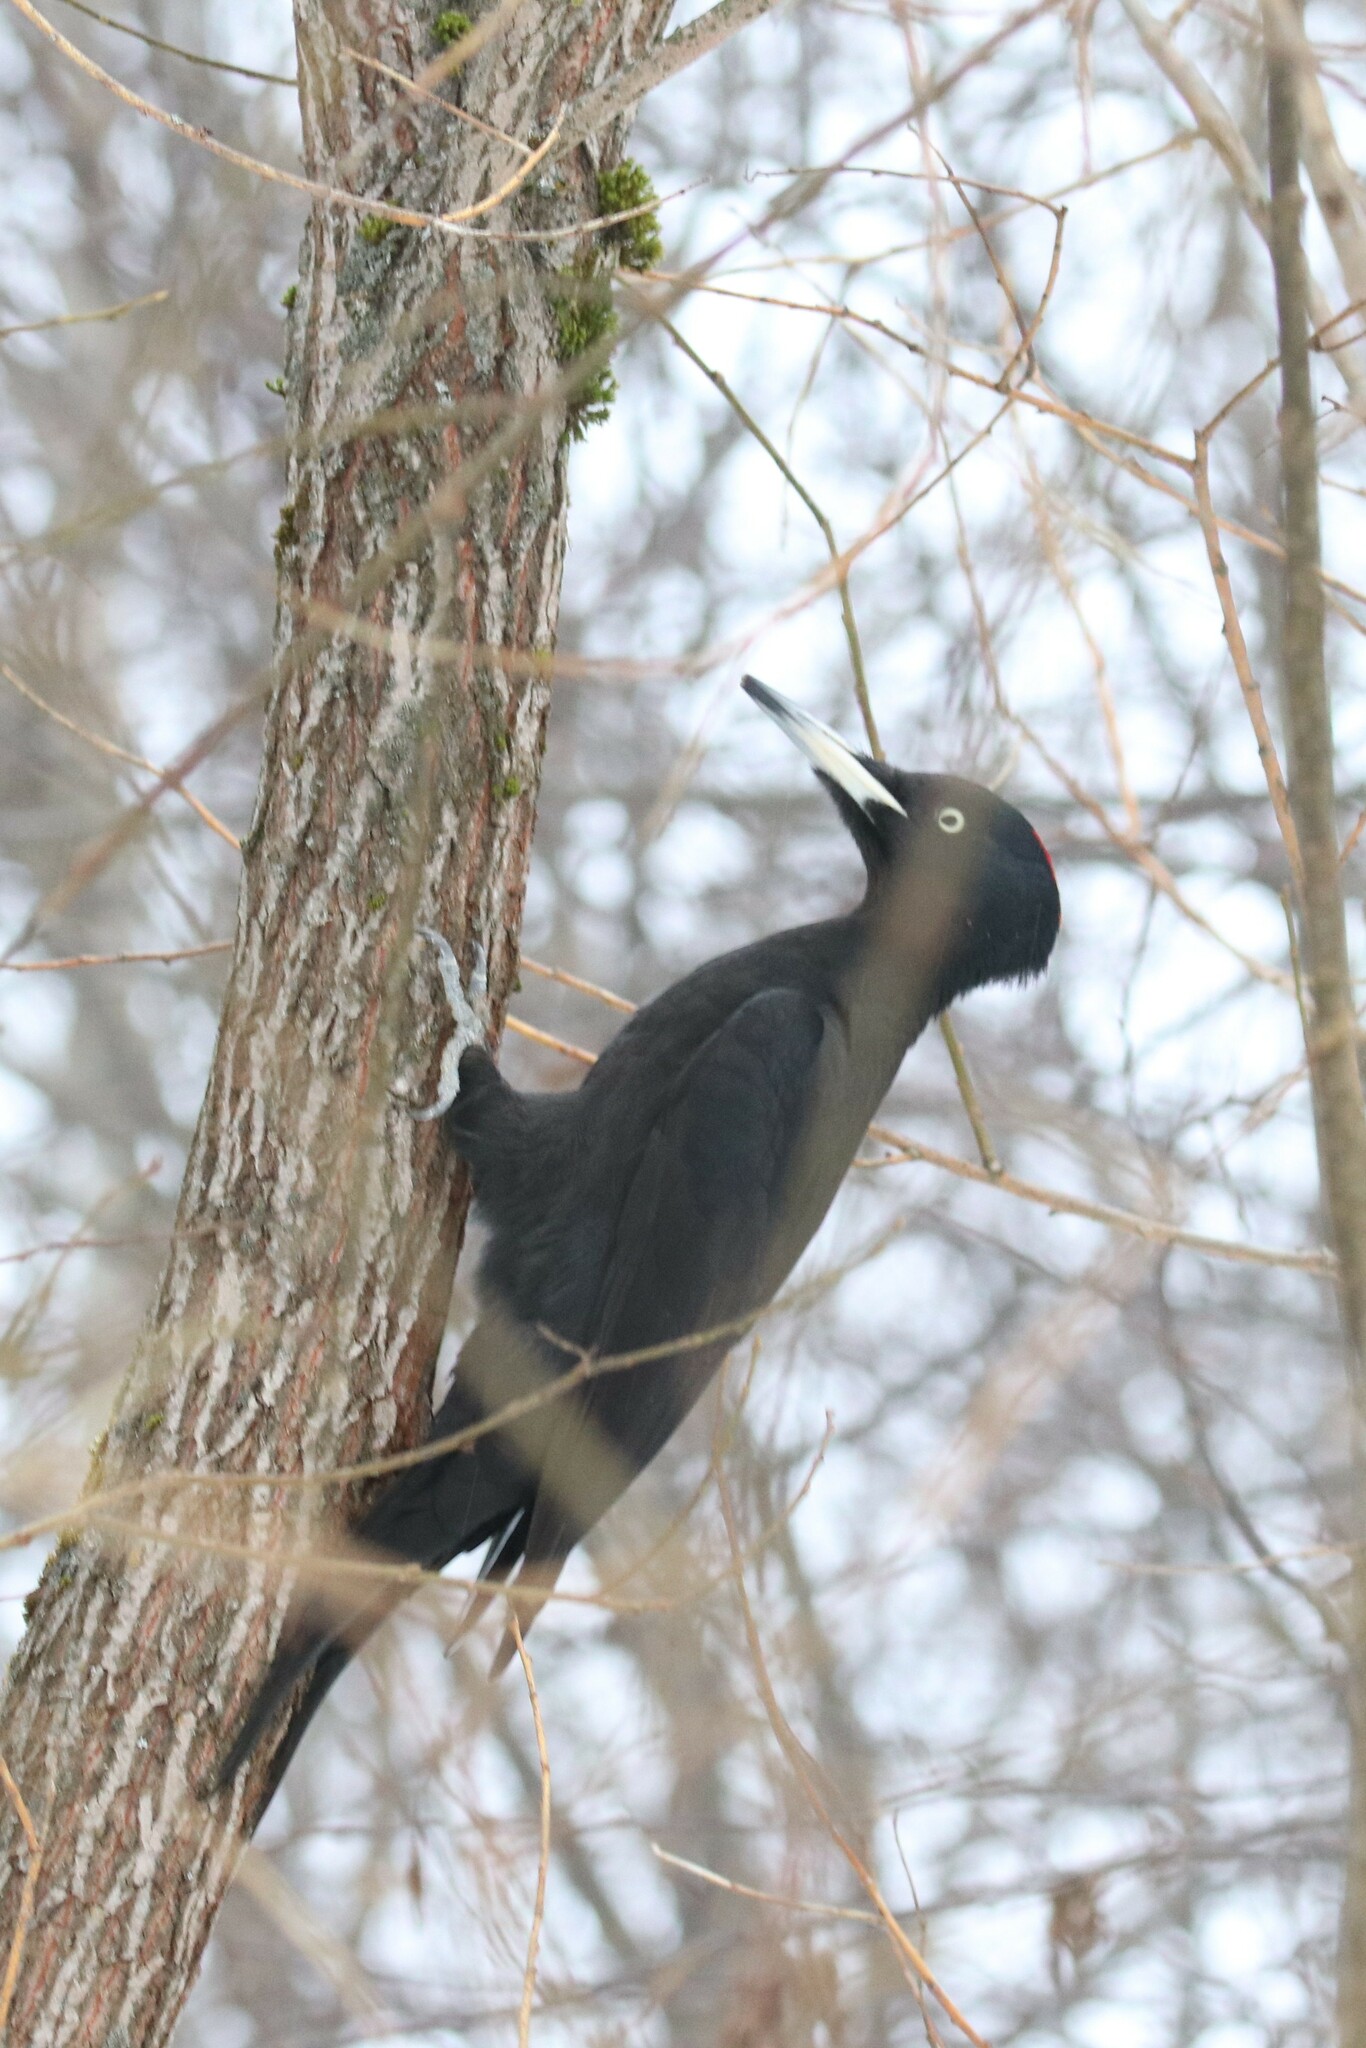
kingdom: Animalia
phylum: Chordata
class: Aves
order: Piciformes
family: Picidae
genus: Dryocopus
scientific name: Dryocopus martius
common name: Black woodpecker
